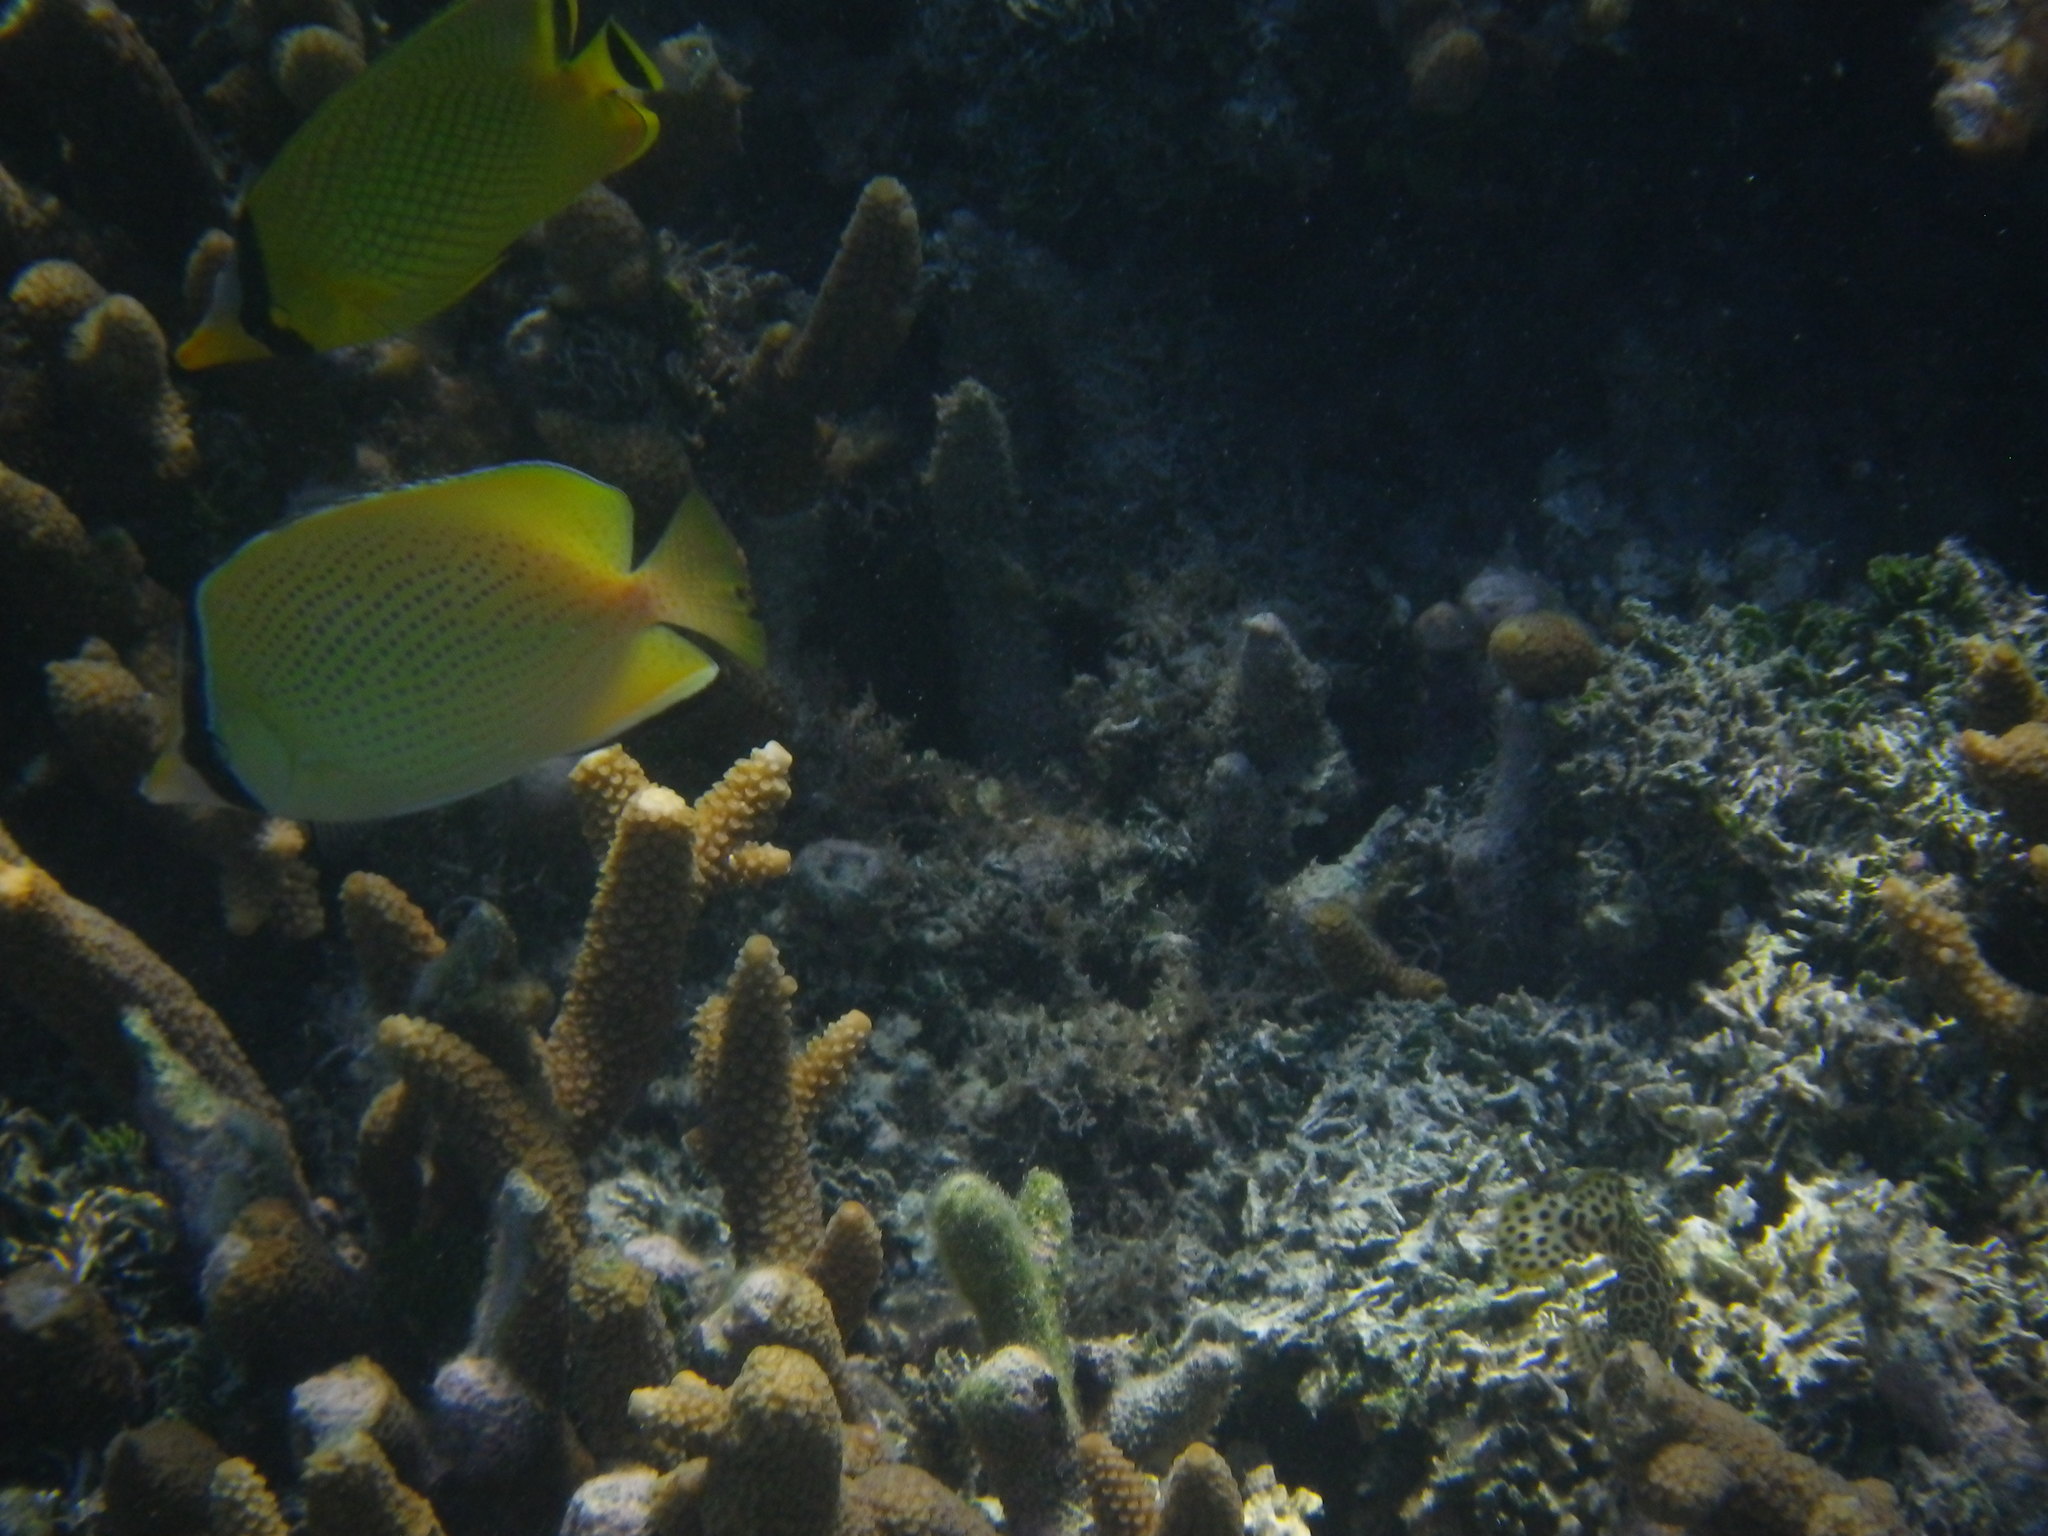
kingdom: Animalia
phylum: Chordata
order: Perciformes
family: Chaetodontidae
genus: Chaetodon
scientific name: Chaetodon citrinellus
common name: Speckled butterflyfish
